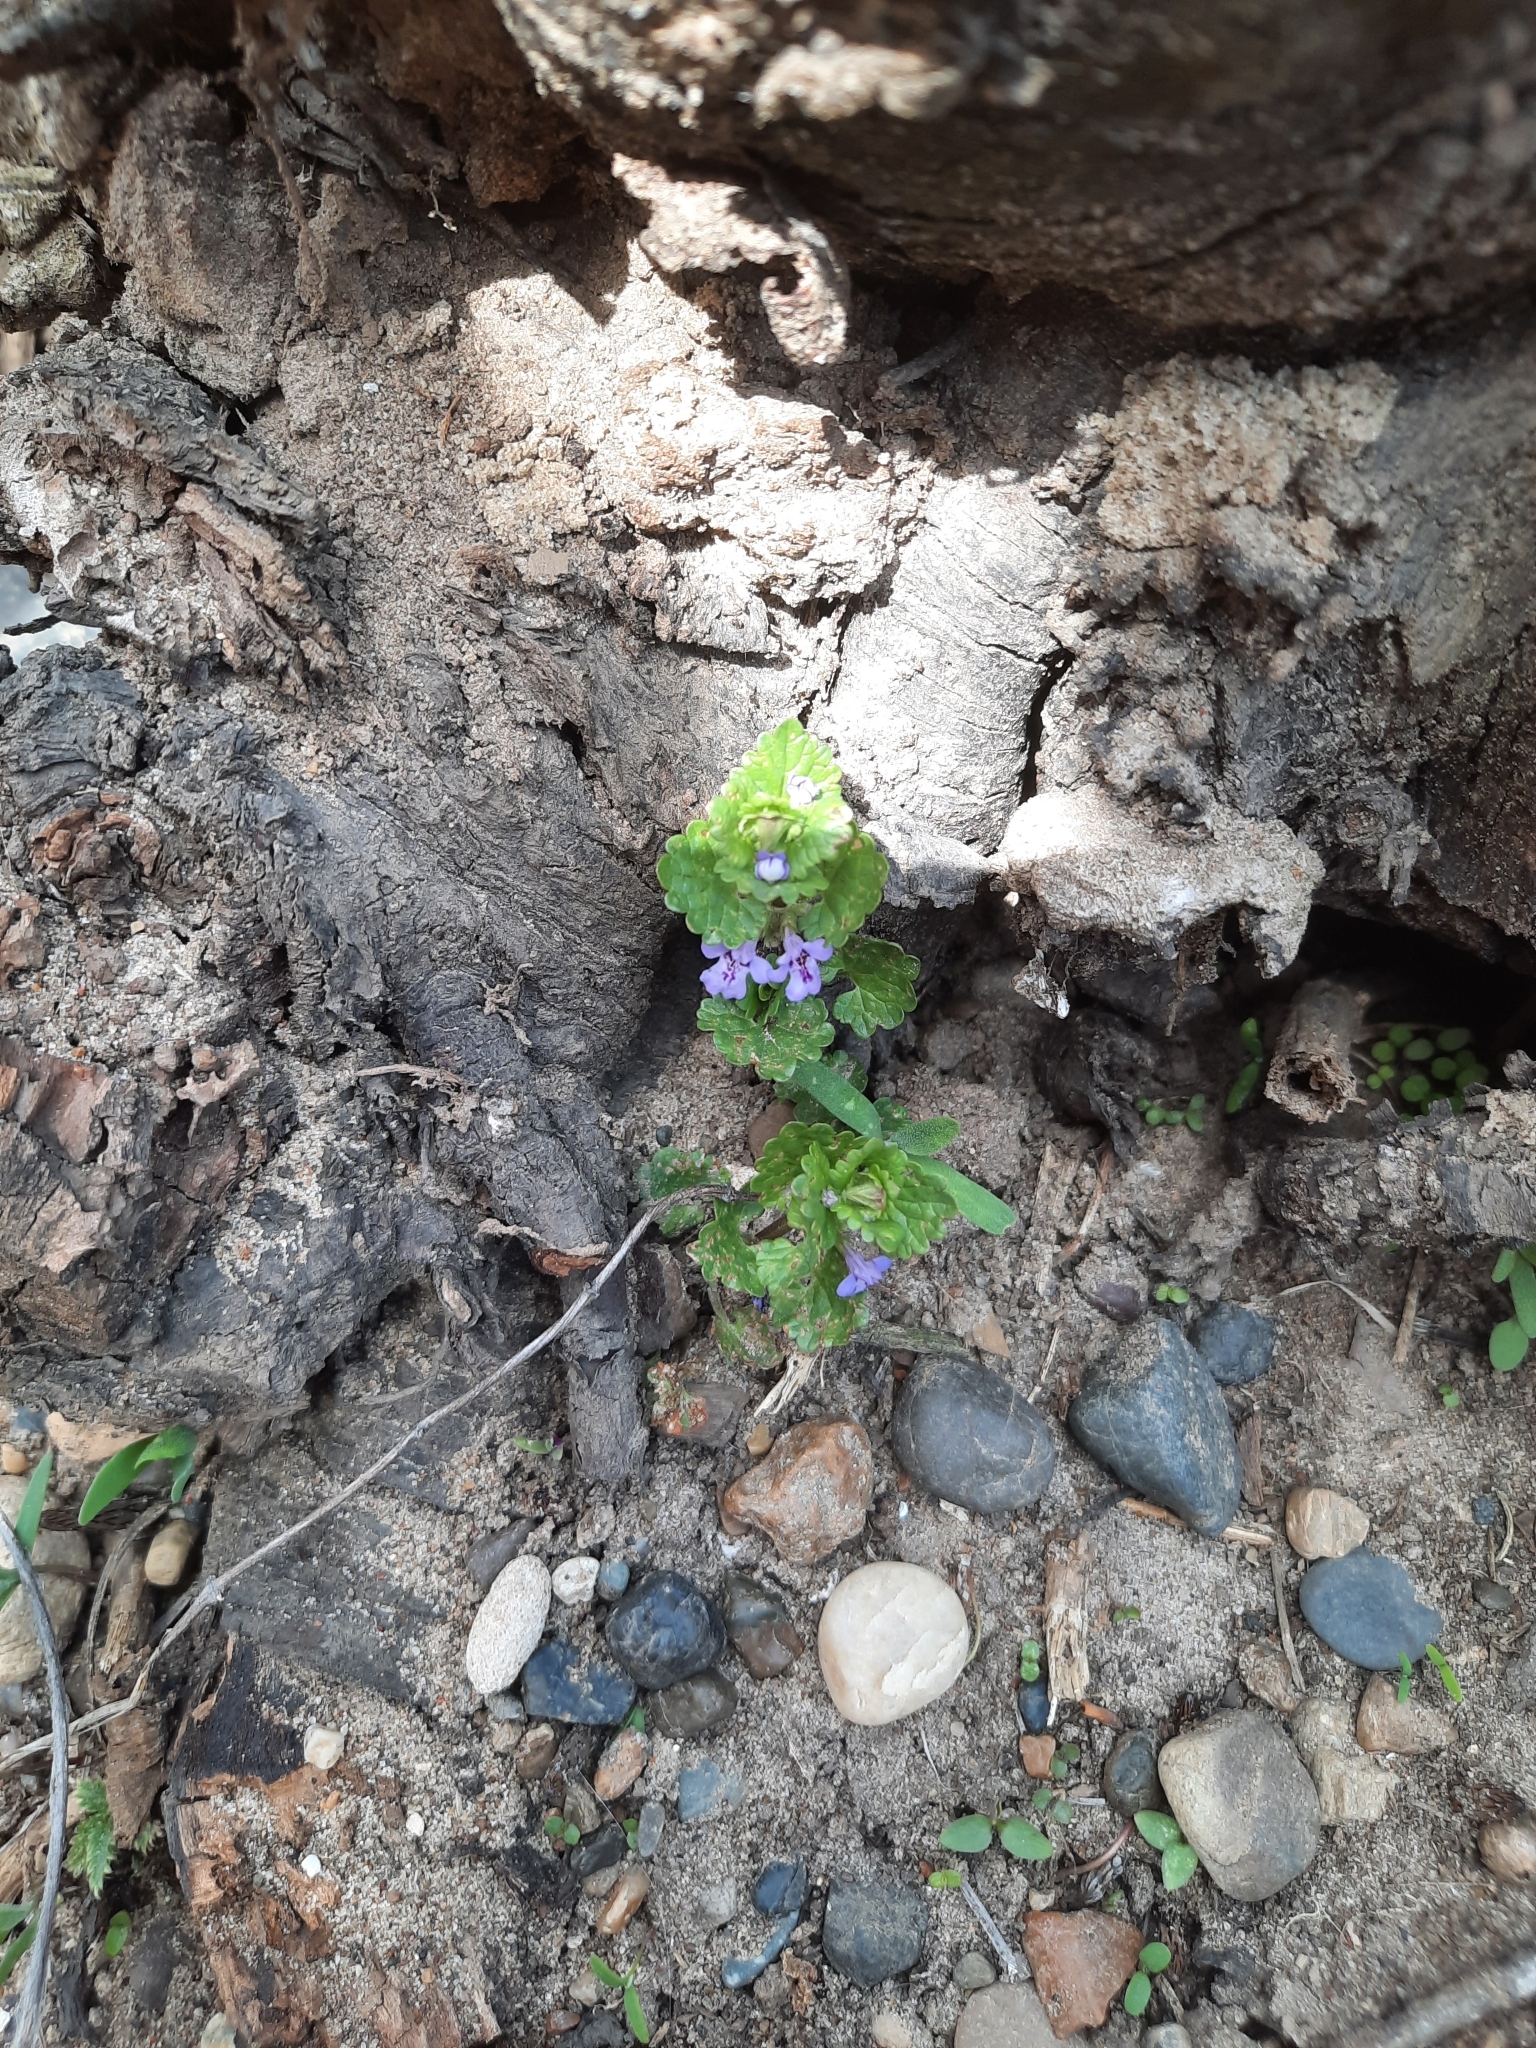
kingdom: Plantae
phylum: Tracheophyta
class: Magnoliopsida
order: Lamiales
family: Lamiaceae
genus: Glechoma
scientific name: Glechoma hederacea
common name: Ground ivy
